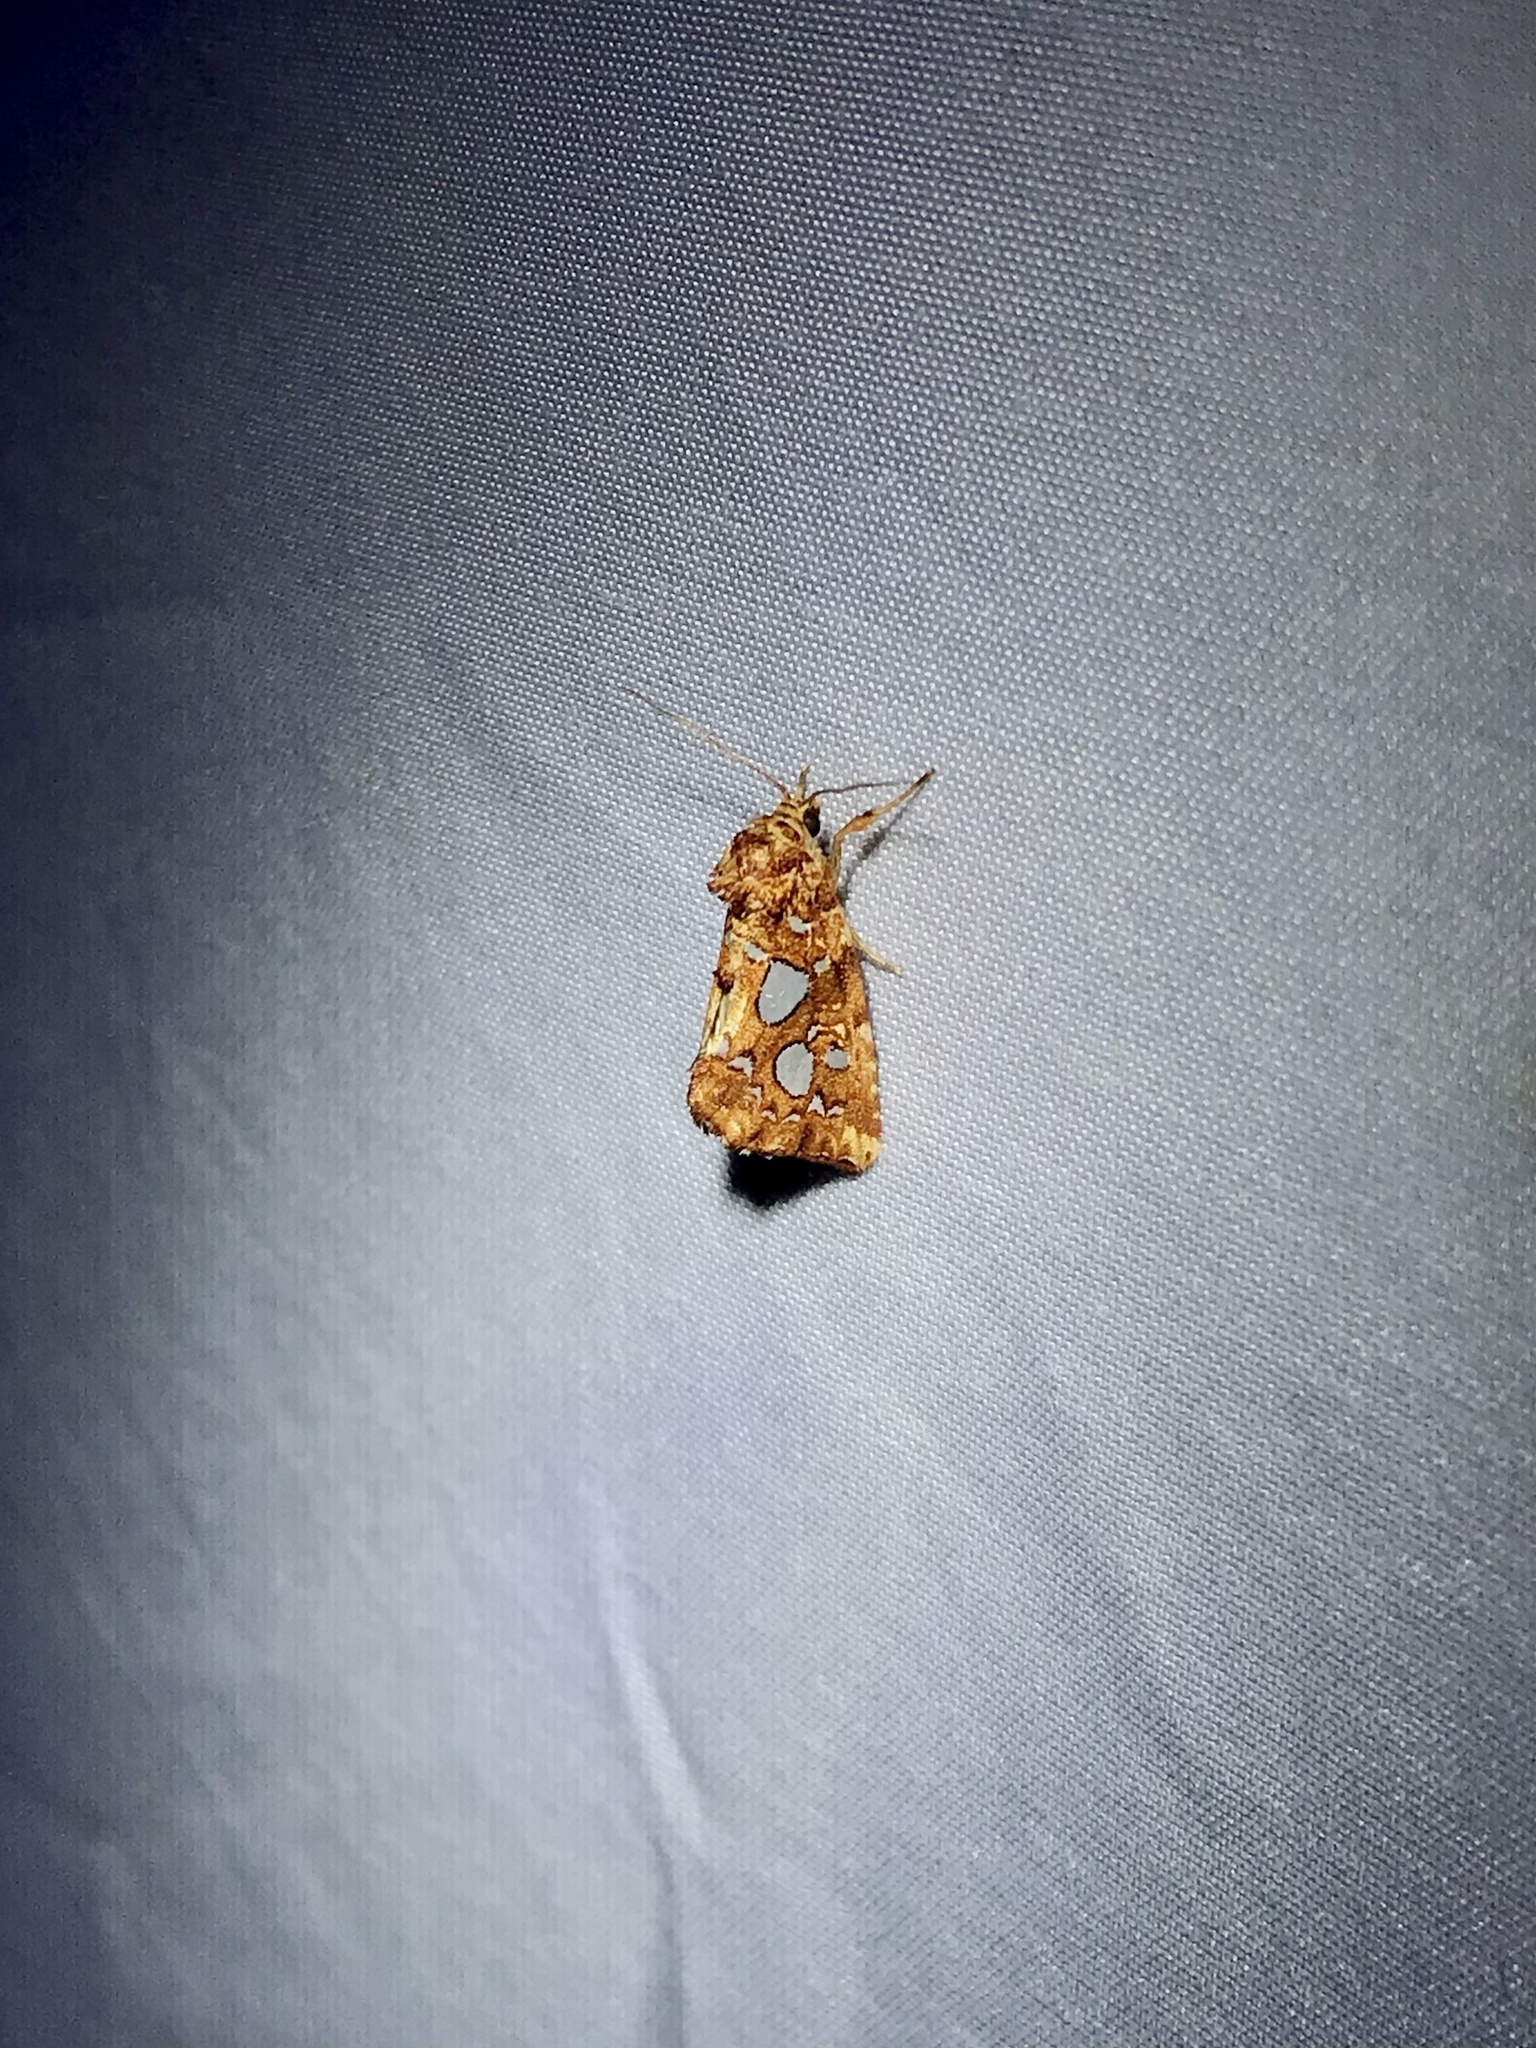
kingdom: Animalia
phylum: Arthropoda
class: Insecta
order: Lepidoptera
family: Noctuidae
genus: Callopistria
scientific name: Callopistria cordata
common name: Silver-spotted fern moth
